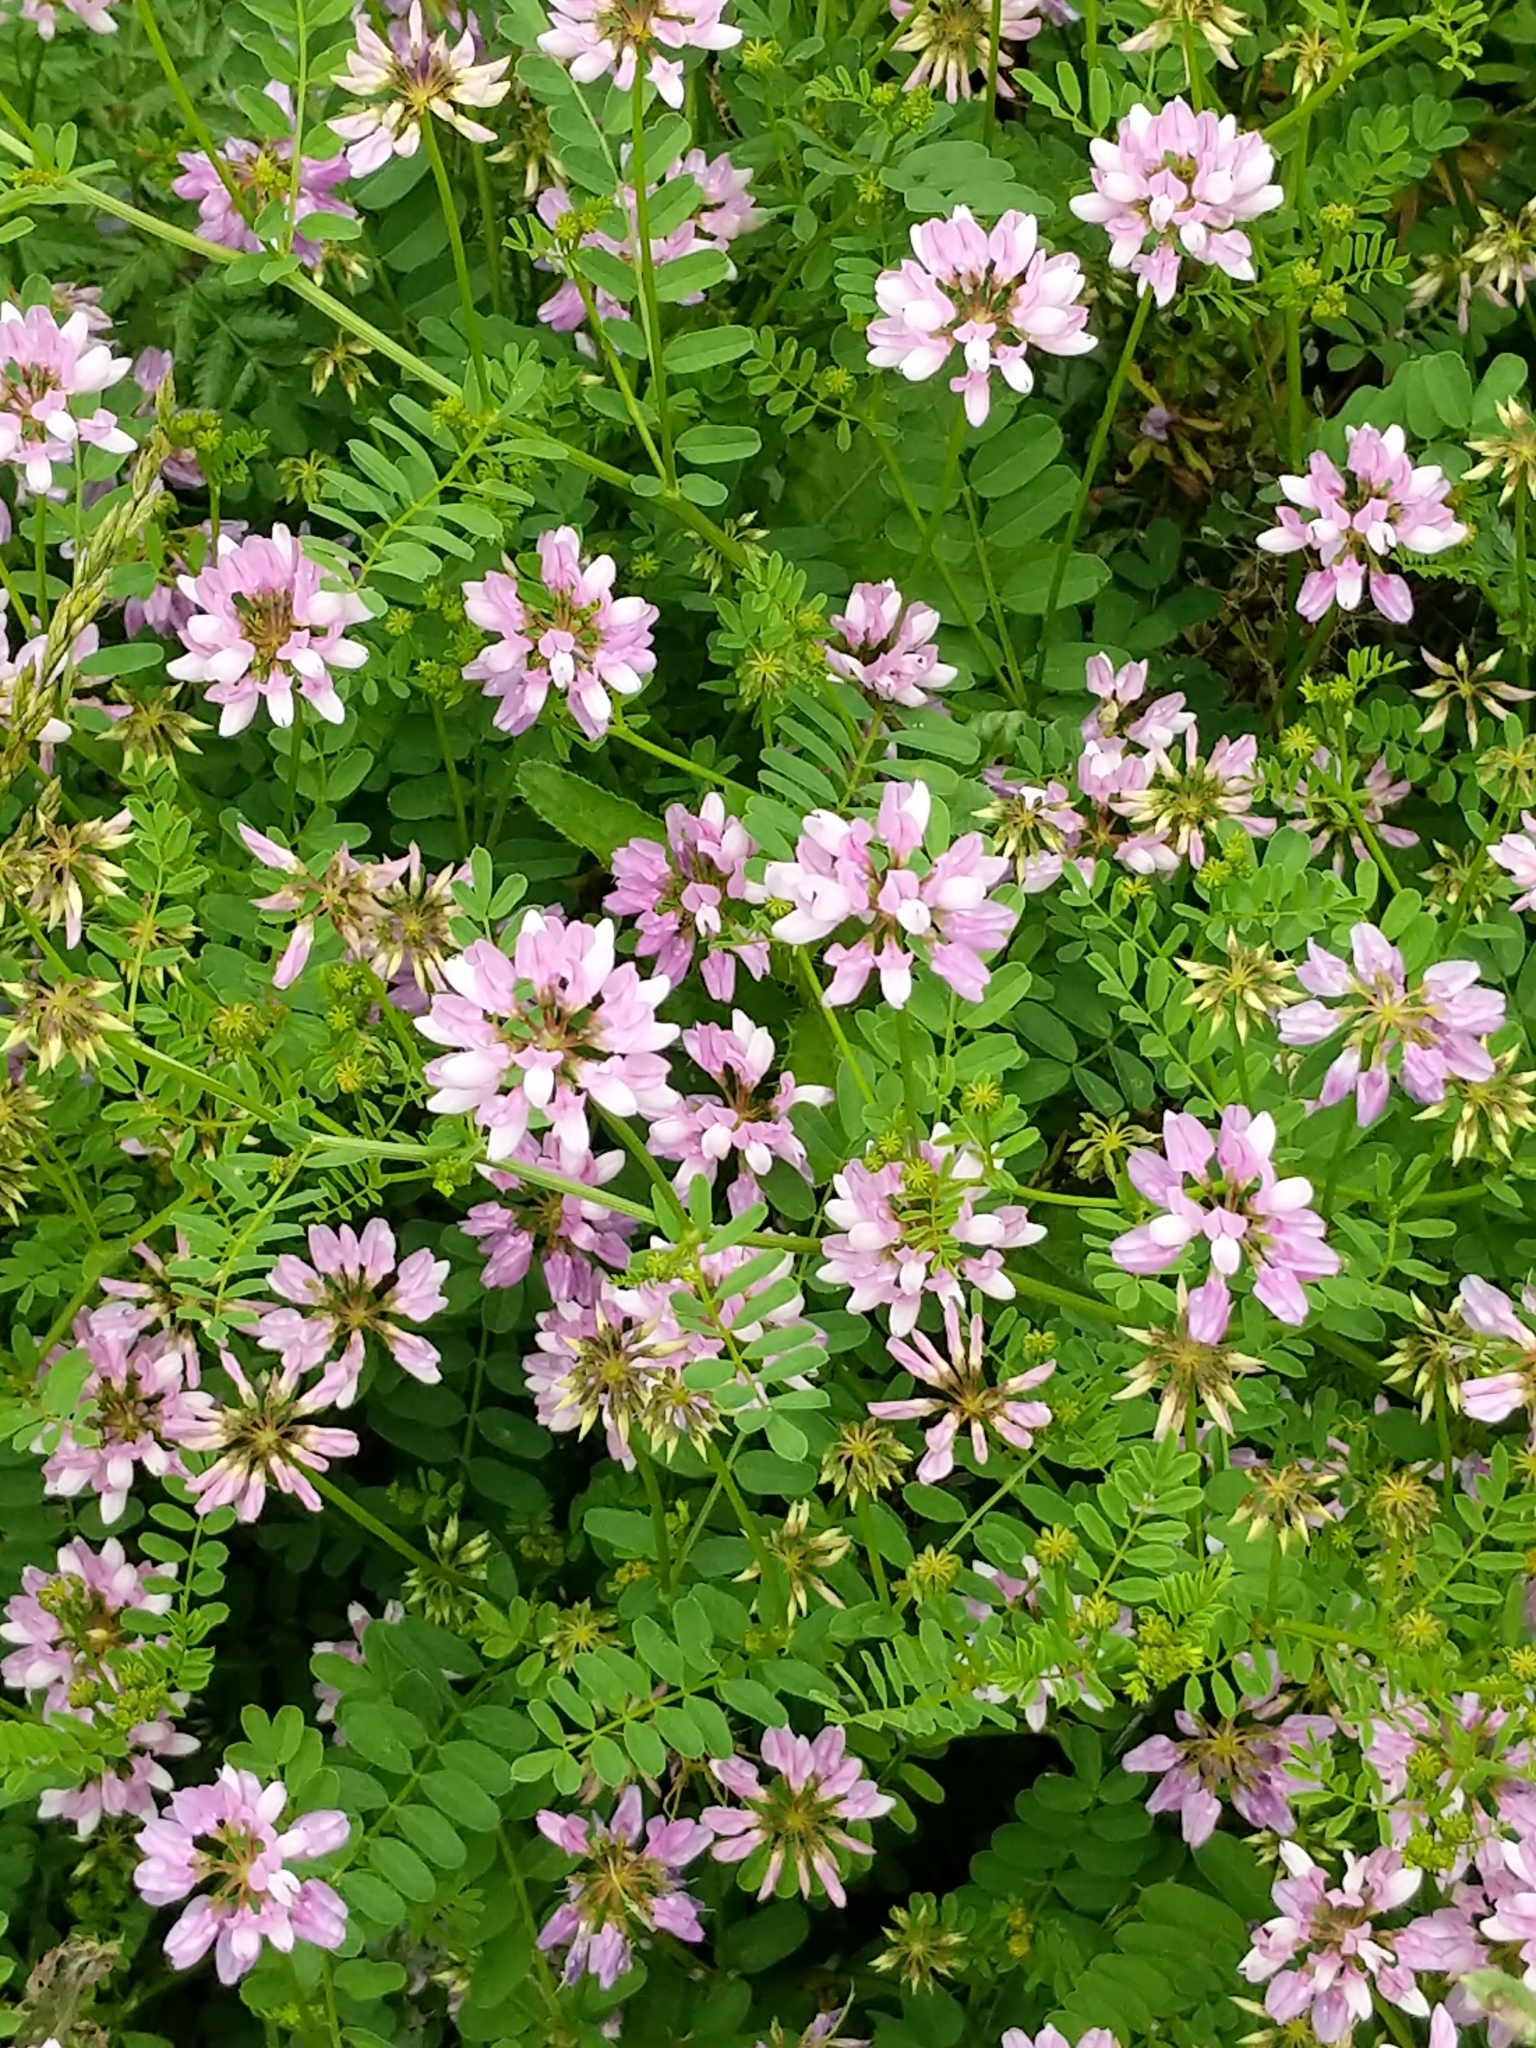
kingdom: Plantae
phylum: Tracheophyta
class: Magnoliopsida
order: Fabales
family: Fabaceae
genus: Coronilla
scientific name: Coronilla varia
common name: Crownvetch
